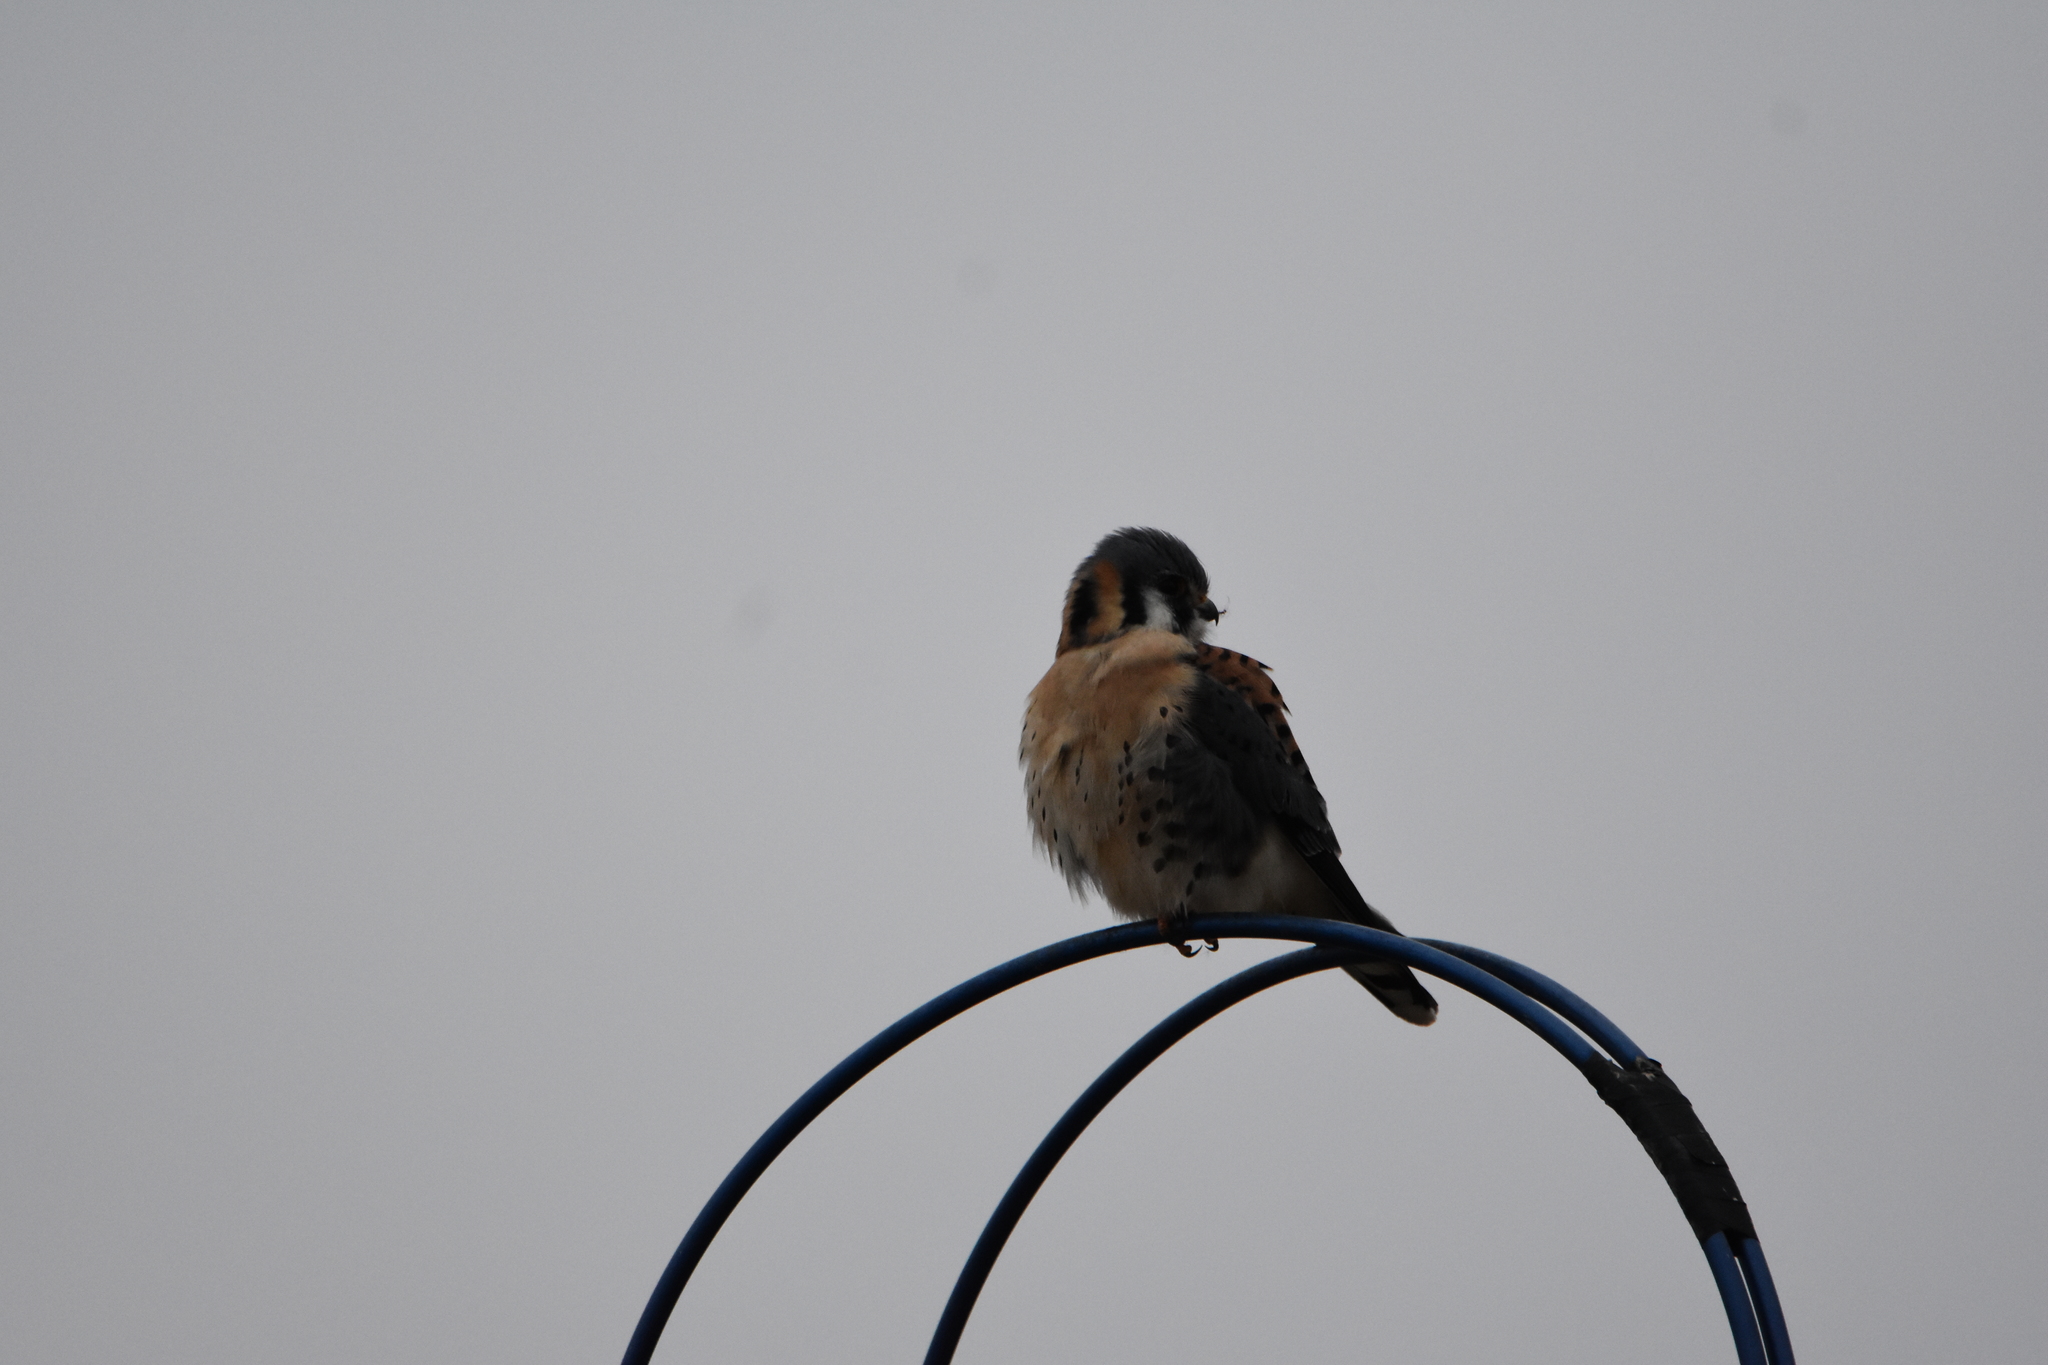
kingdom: Animalia
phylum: Chordata
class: Aves
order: Falconiformes
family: Falconidae
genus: Falco
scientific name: Falco sparverius
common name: American kestrel
